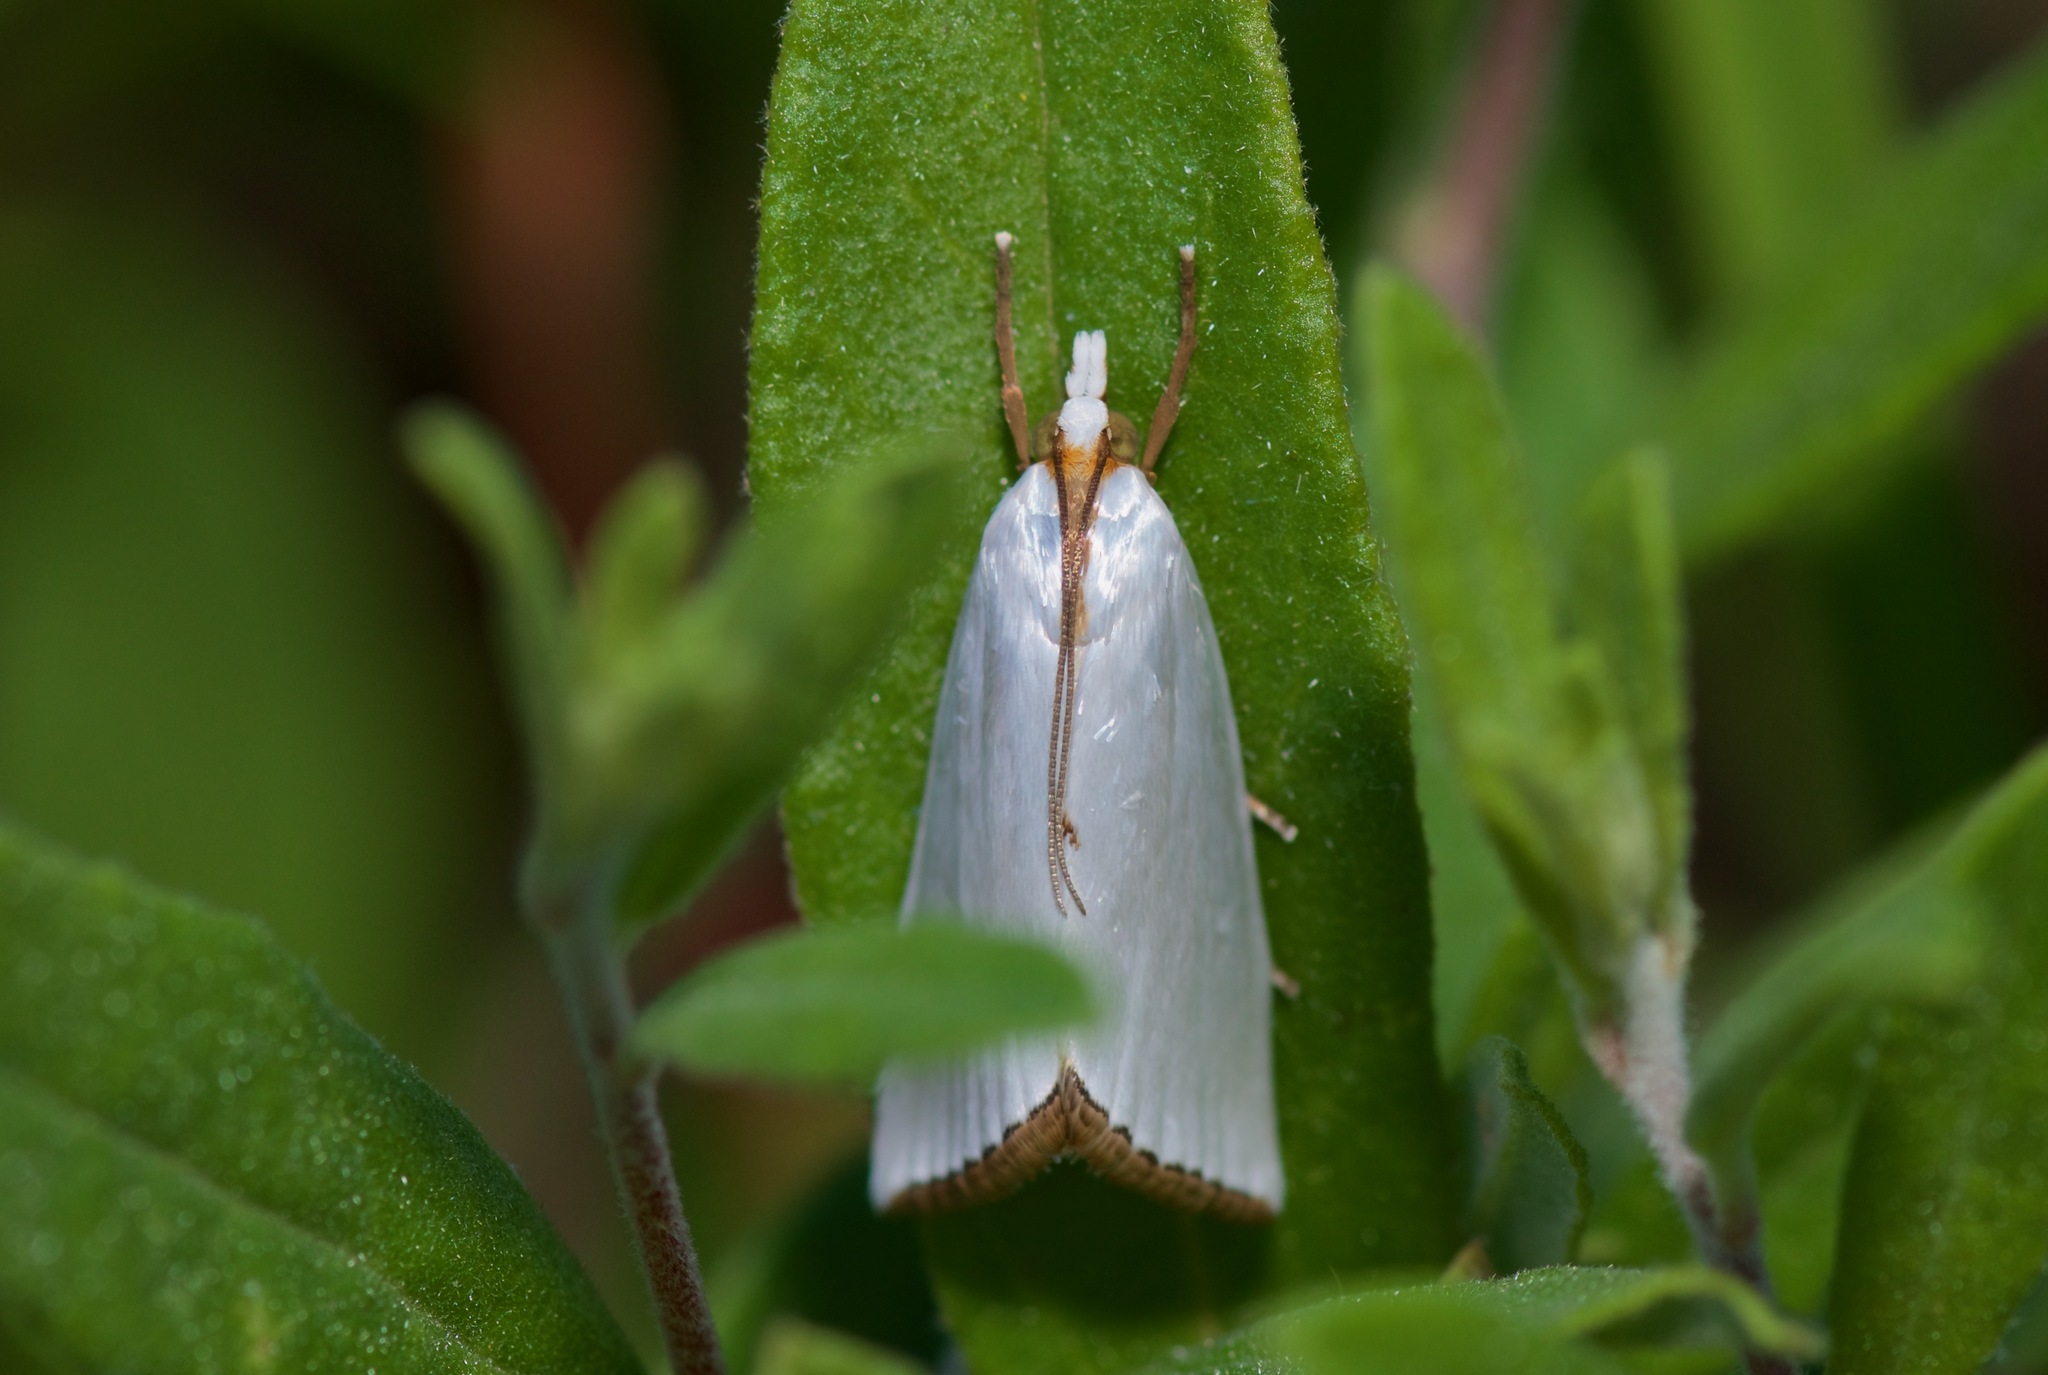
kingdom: Animalia
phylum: Arthropoda
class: Insecta
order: Lepidoptera
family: Crambidae
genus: Argyria
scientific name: Argyria nivalis
